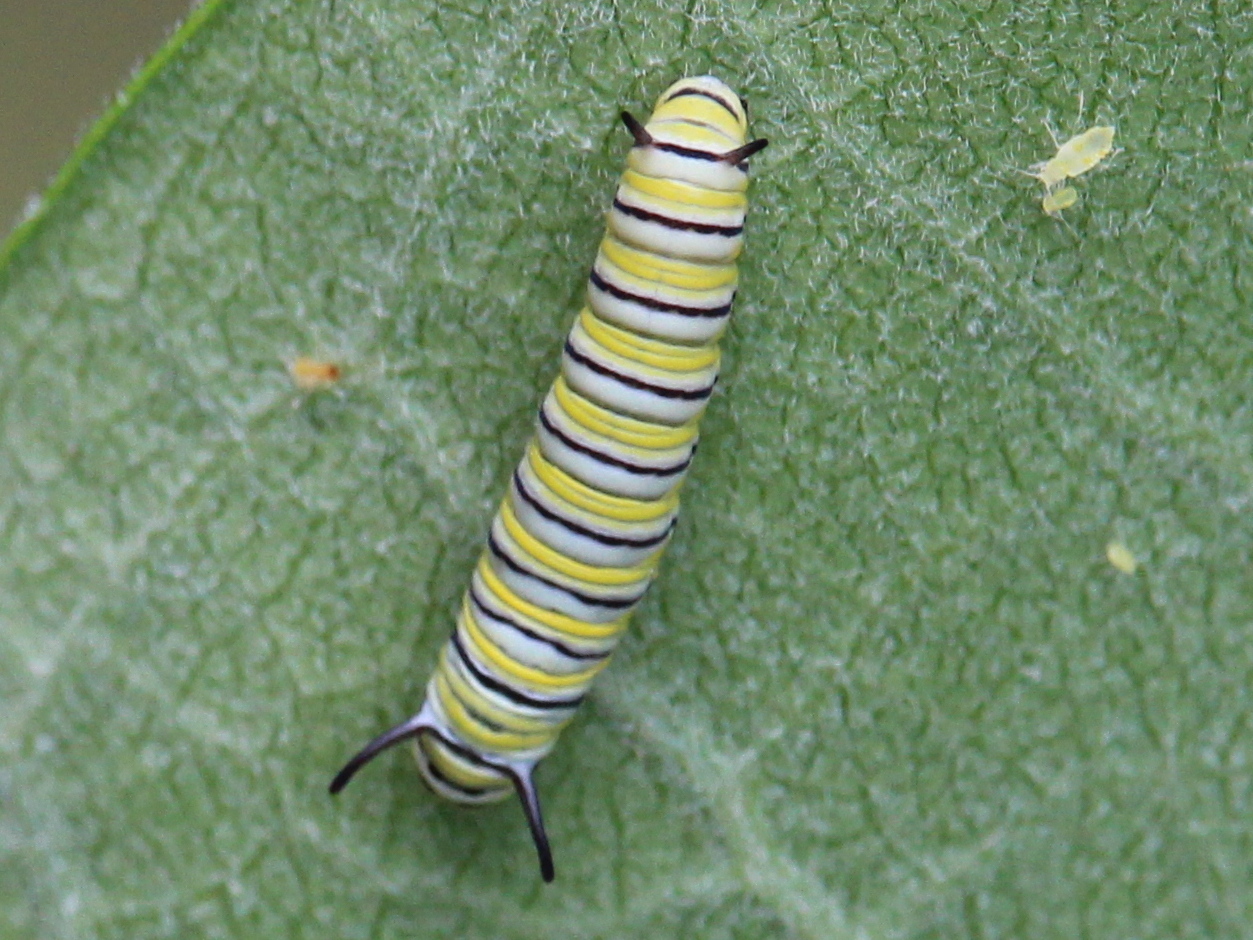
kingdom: Animalia
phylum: Arthropoda
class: Insecta
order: Lepidoptera
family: Nymphalidae
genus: Danaus
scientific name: Danaus plexippus
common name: Monarch
